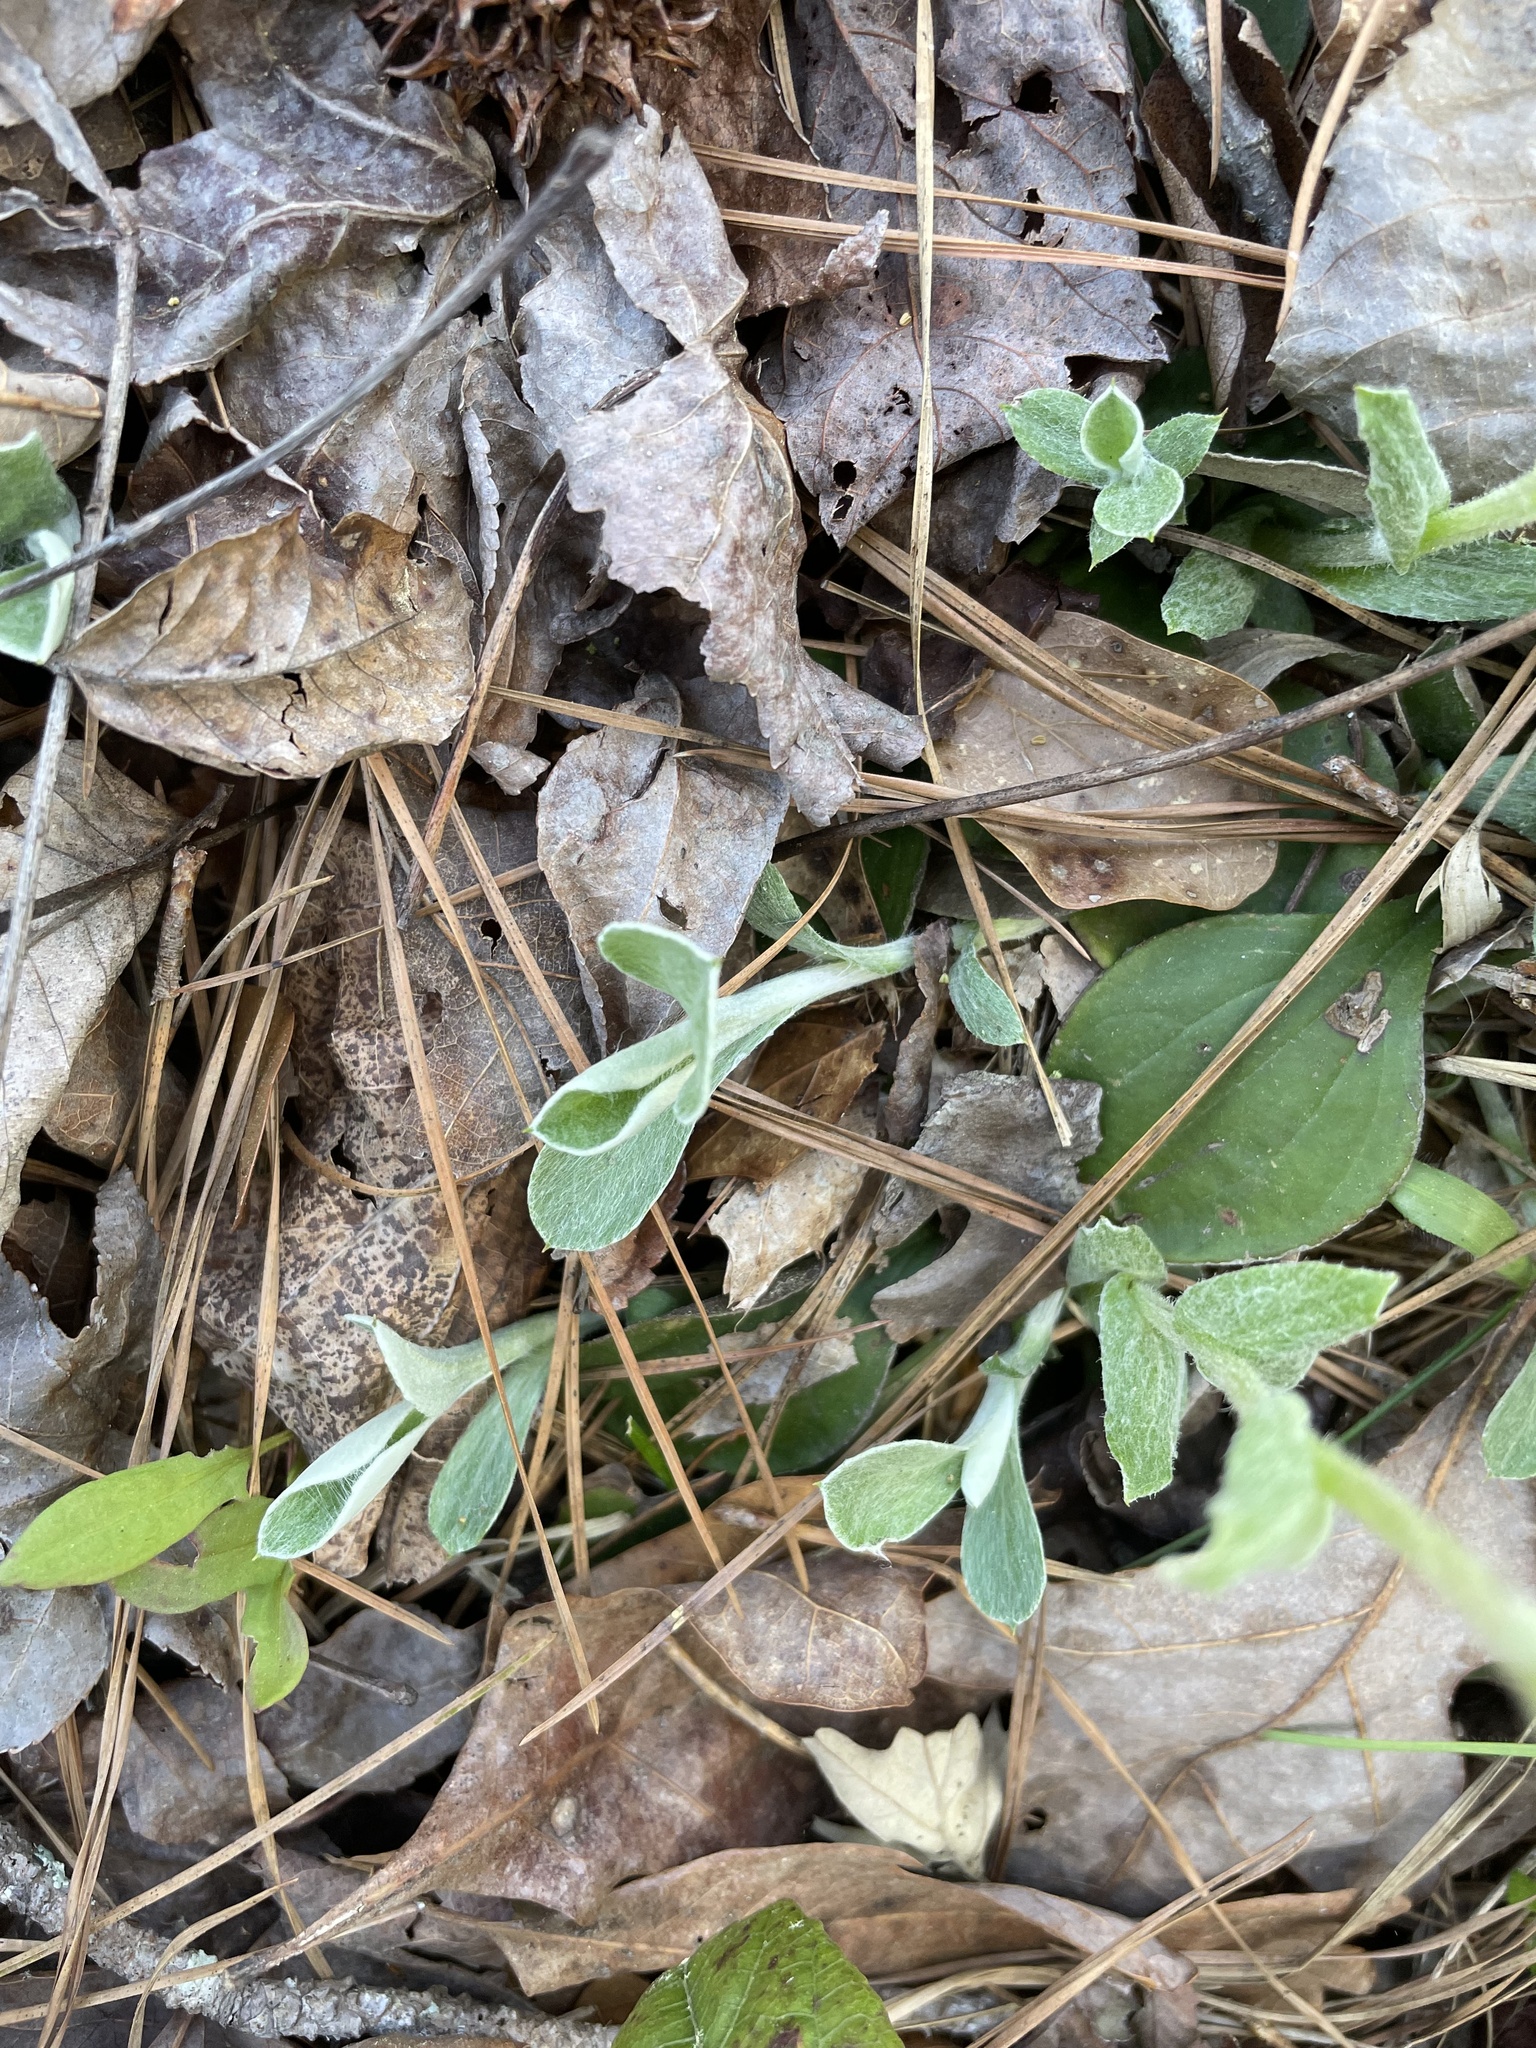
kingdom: Plantae
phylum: Tracheophyta
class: Magnoliopsida
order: Asterales
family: Asteraceae
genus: Antennaria
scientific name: Antennaria parlinii
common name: Parlin's pussytoes
